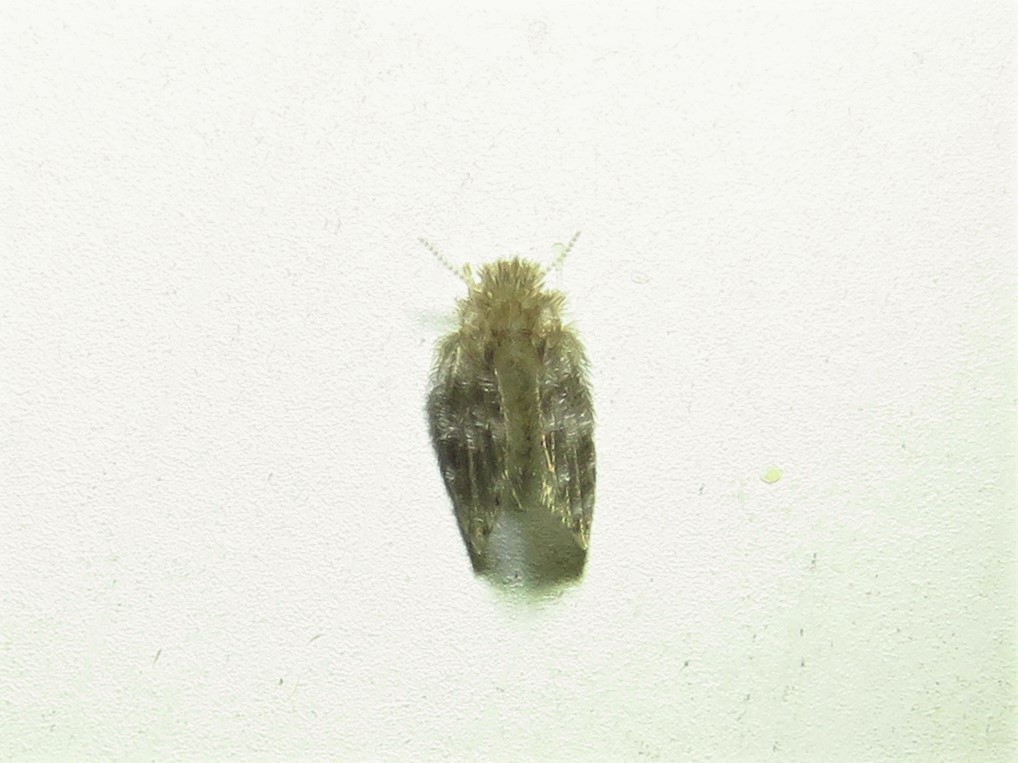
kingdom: Animalia
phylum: Arthropoda
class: Insecta
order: Diptera
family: Psychodidae
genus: Psychoda
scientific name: Psychoda alternata
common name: Moth fly
